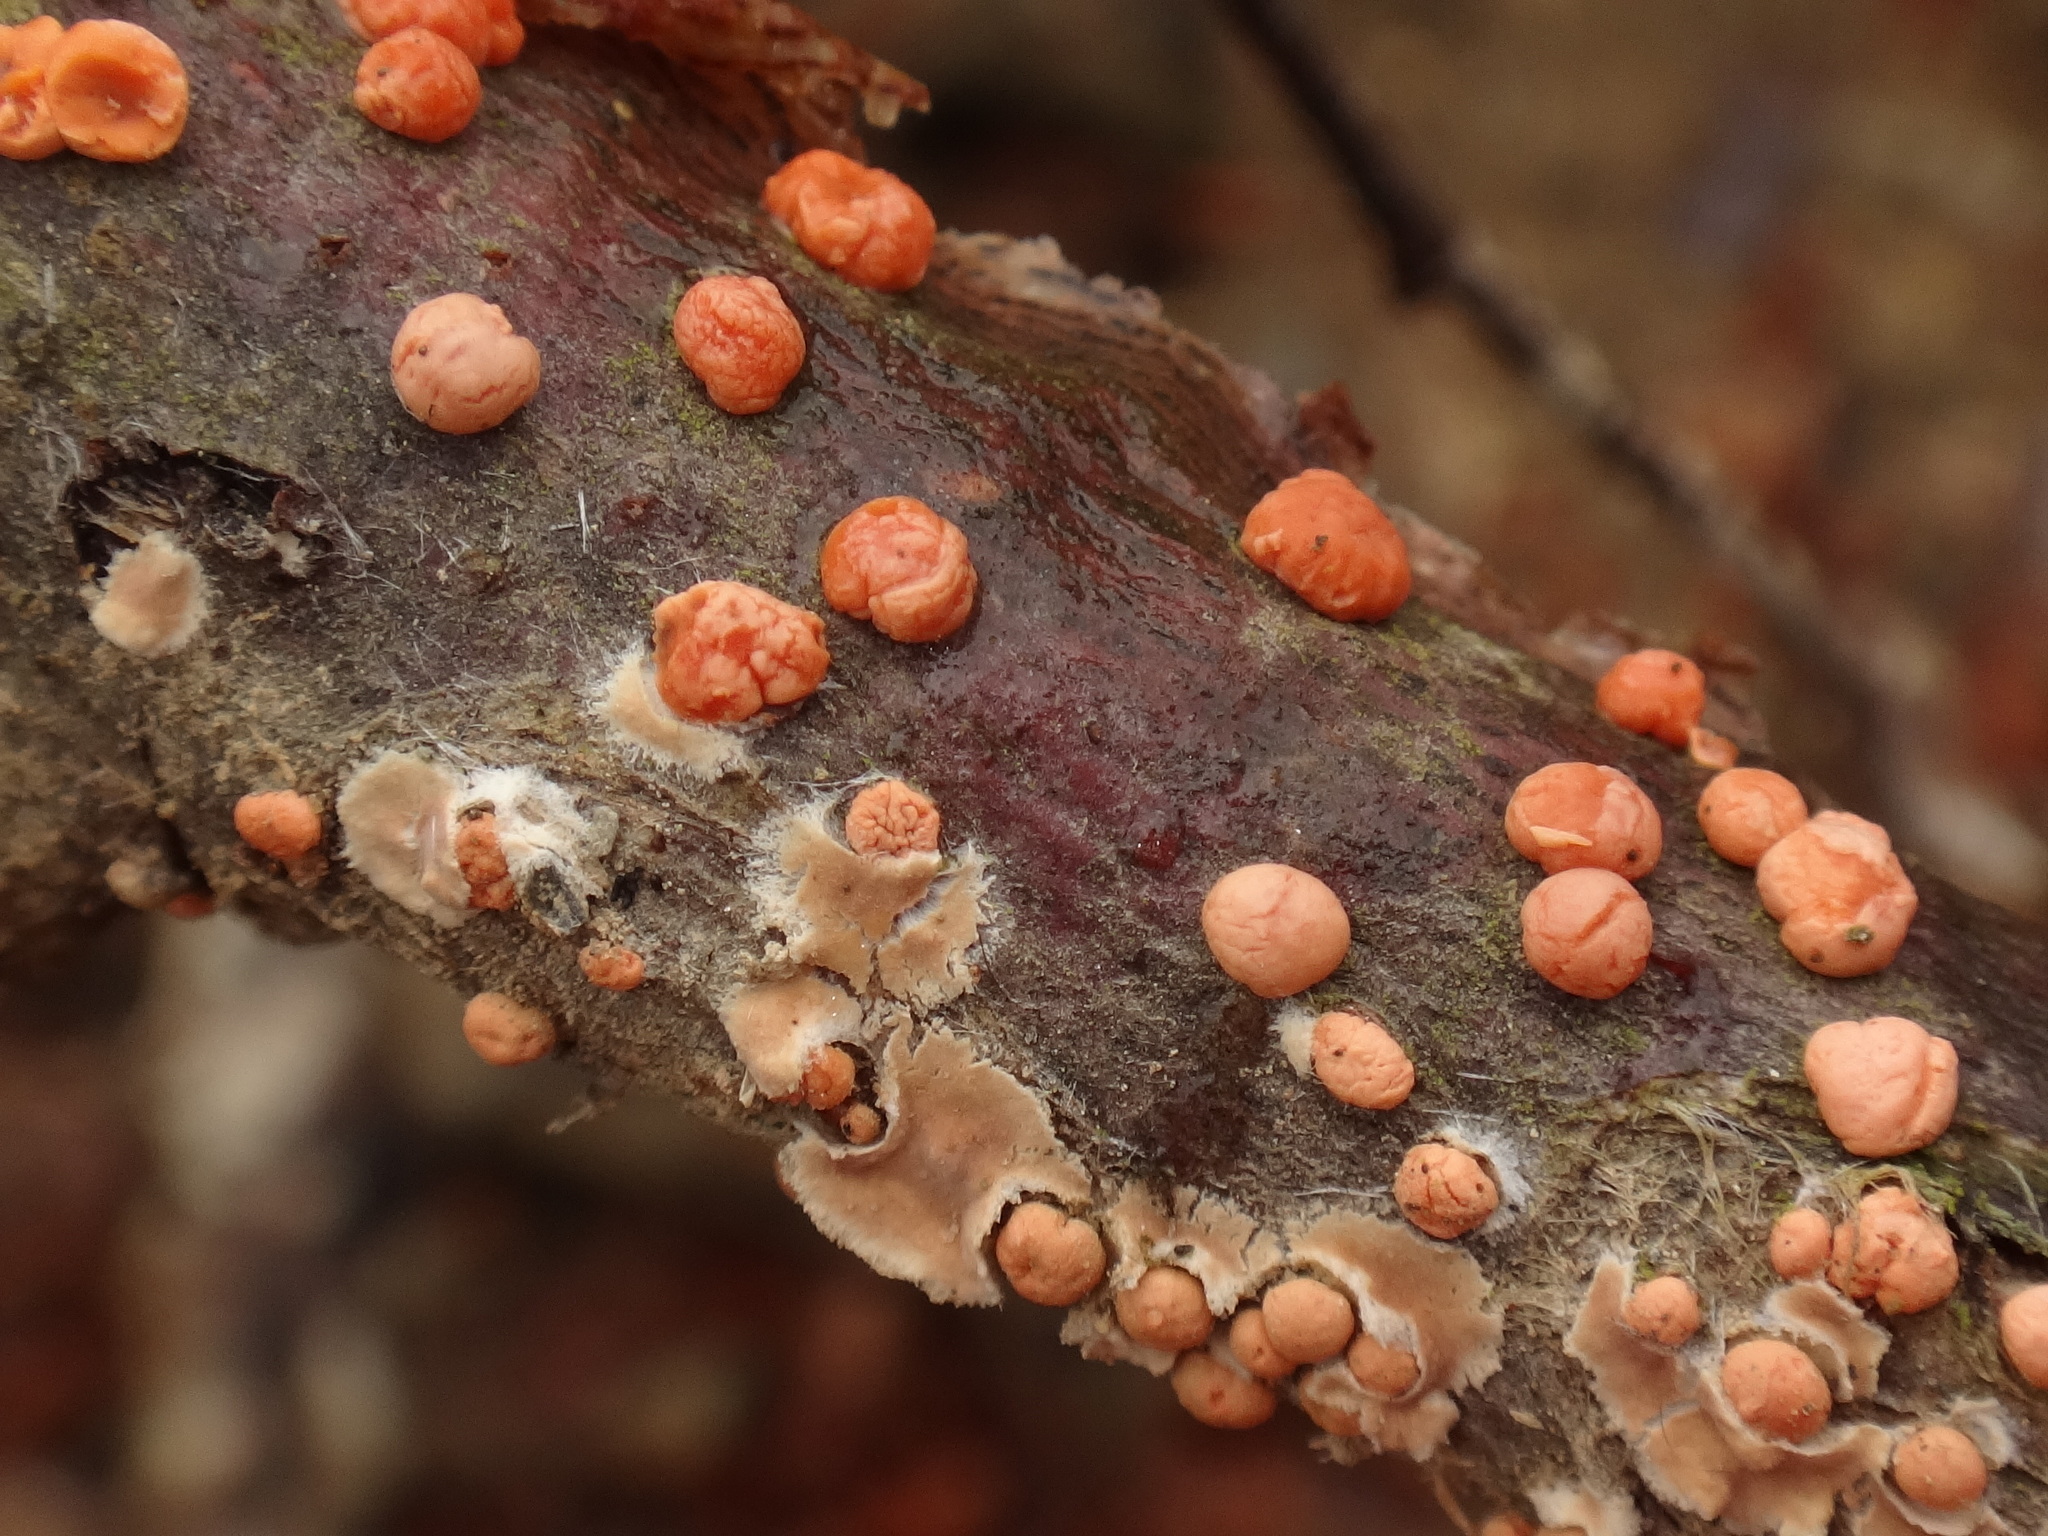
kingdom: Fungi
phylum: Ascomycota
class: Sordariomycetes
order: Hypocreales
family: Nectriaceae
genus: Nectria
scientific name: Nectria cinnabarina
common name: Coral spot
